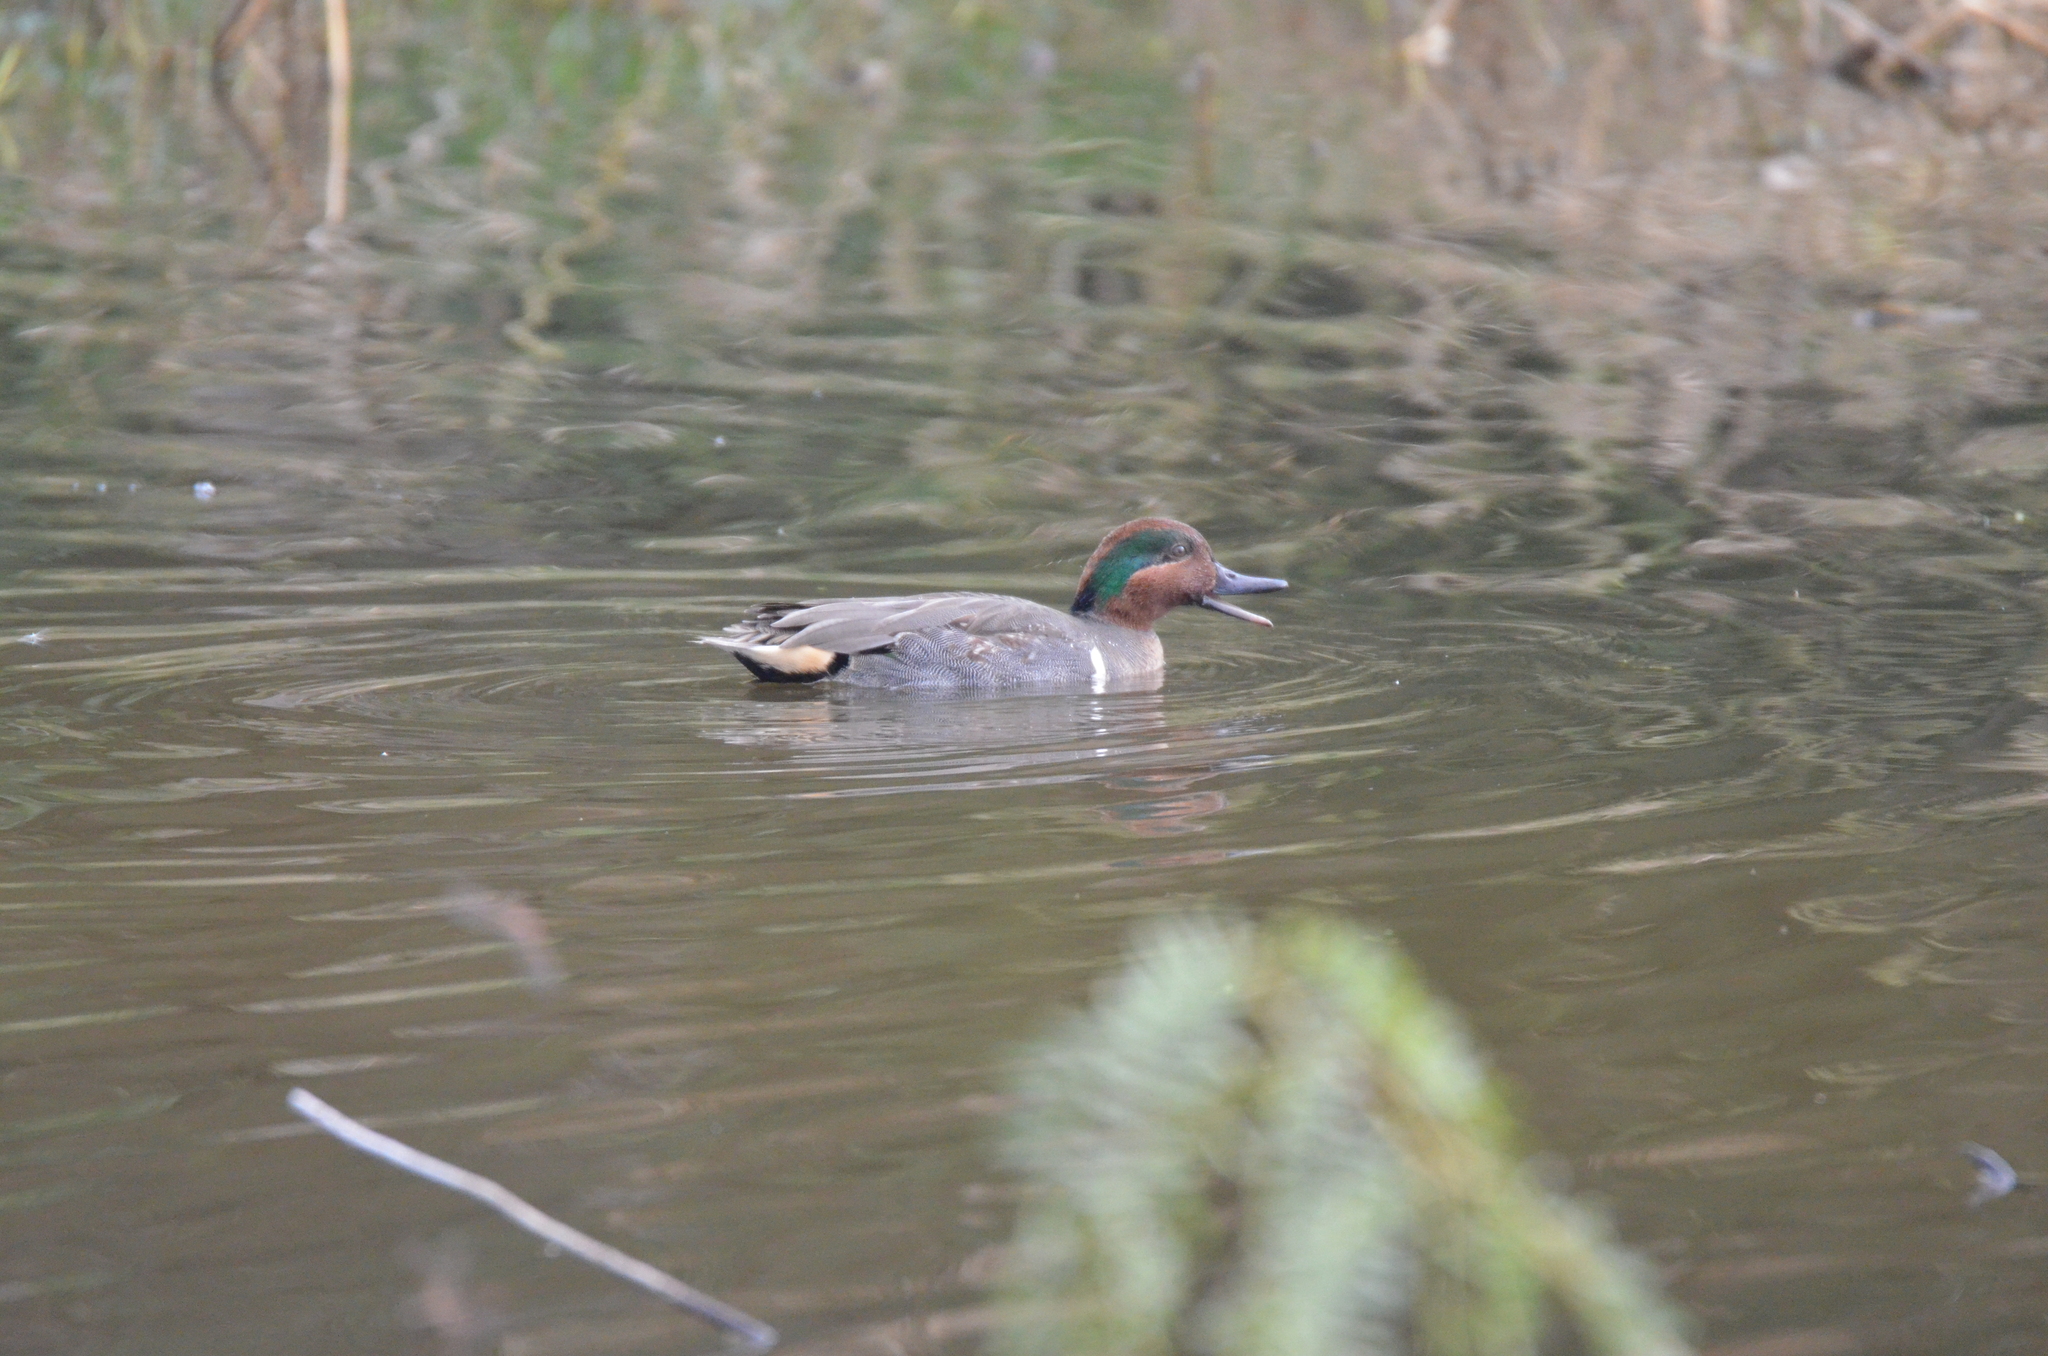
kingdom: Animalia
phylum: Chordata
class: Aves
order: Anseriformes
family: Anatidae
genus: Anas
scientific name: Anas crecca
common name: Eurasian teal
